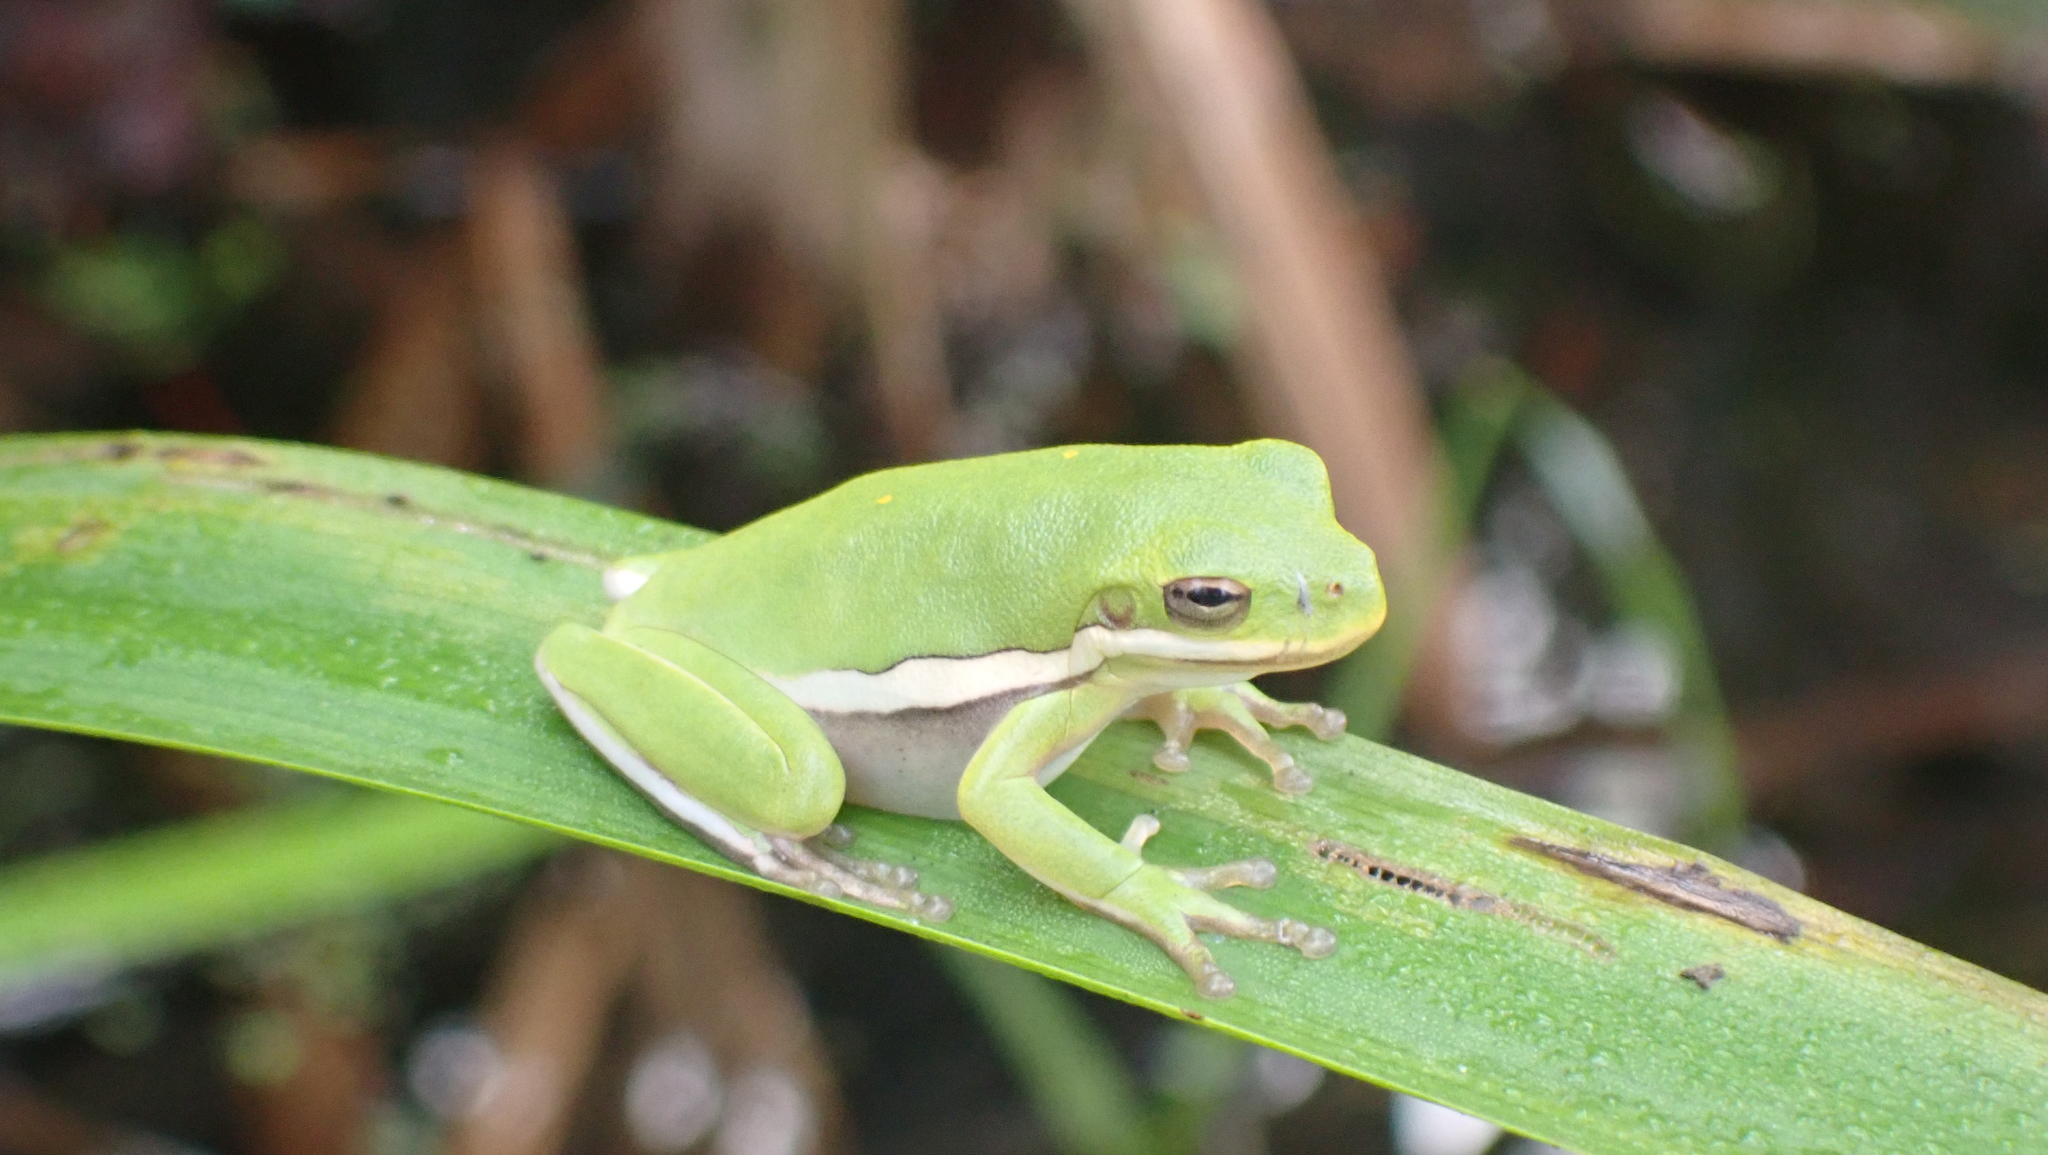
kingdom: Animalia
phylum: Chordata
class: Amphibia
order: Anura
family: Hylidae
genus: Dryophytes
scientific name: Dryophytes cinereus
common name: Green treefrog
